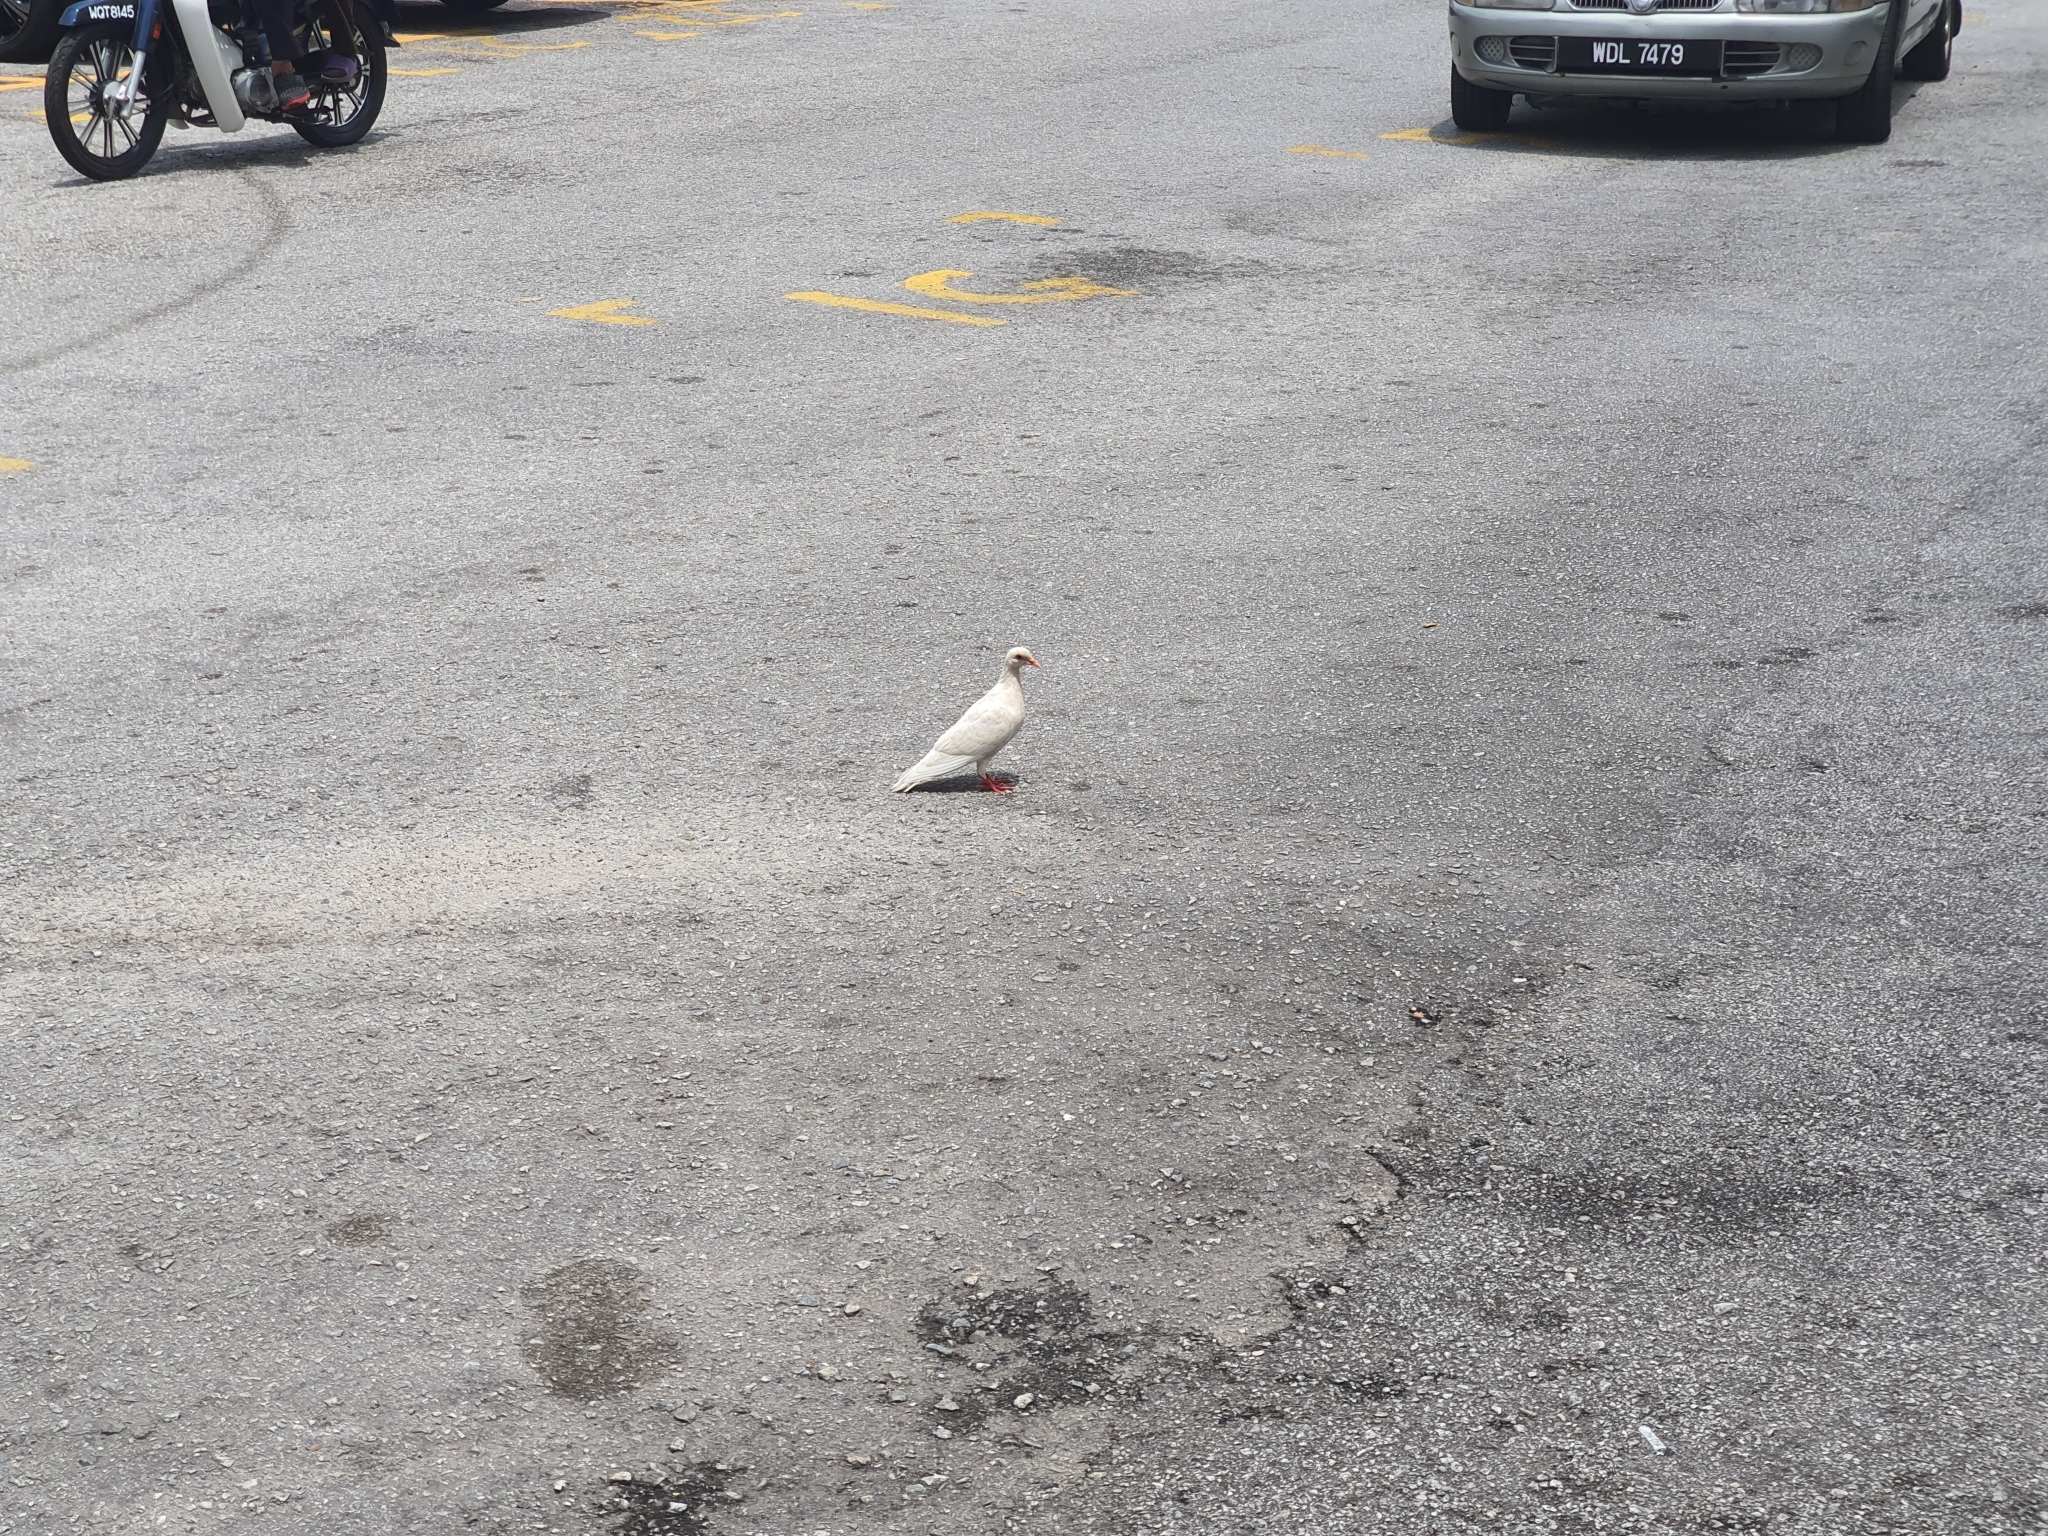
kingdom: Animalia
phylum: Chordata
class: Aves
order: Columbiformes
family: Columbidae
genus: Columba
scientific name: Columba livia
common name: Rock pigeon
